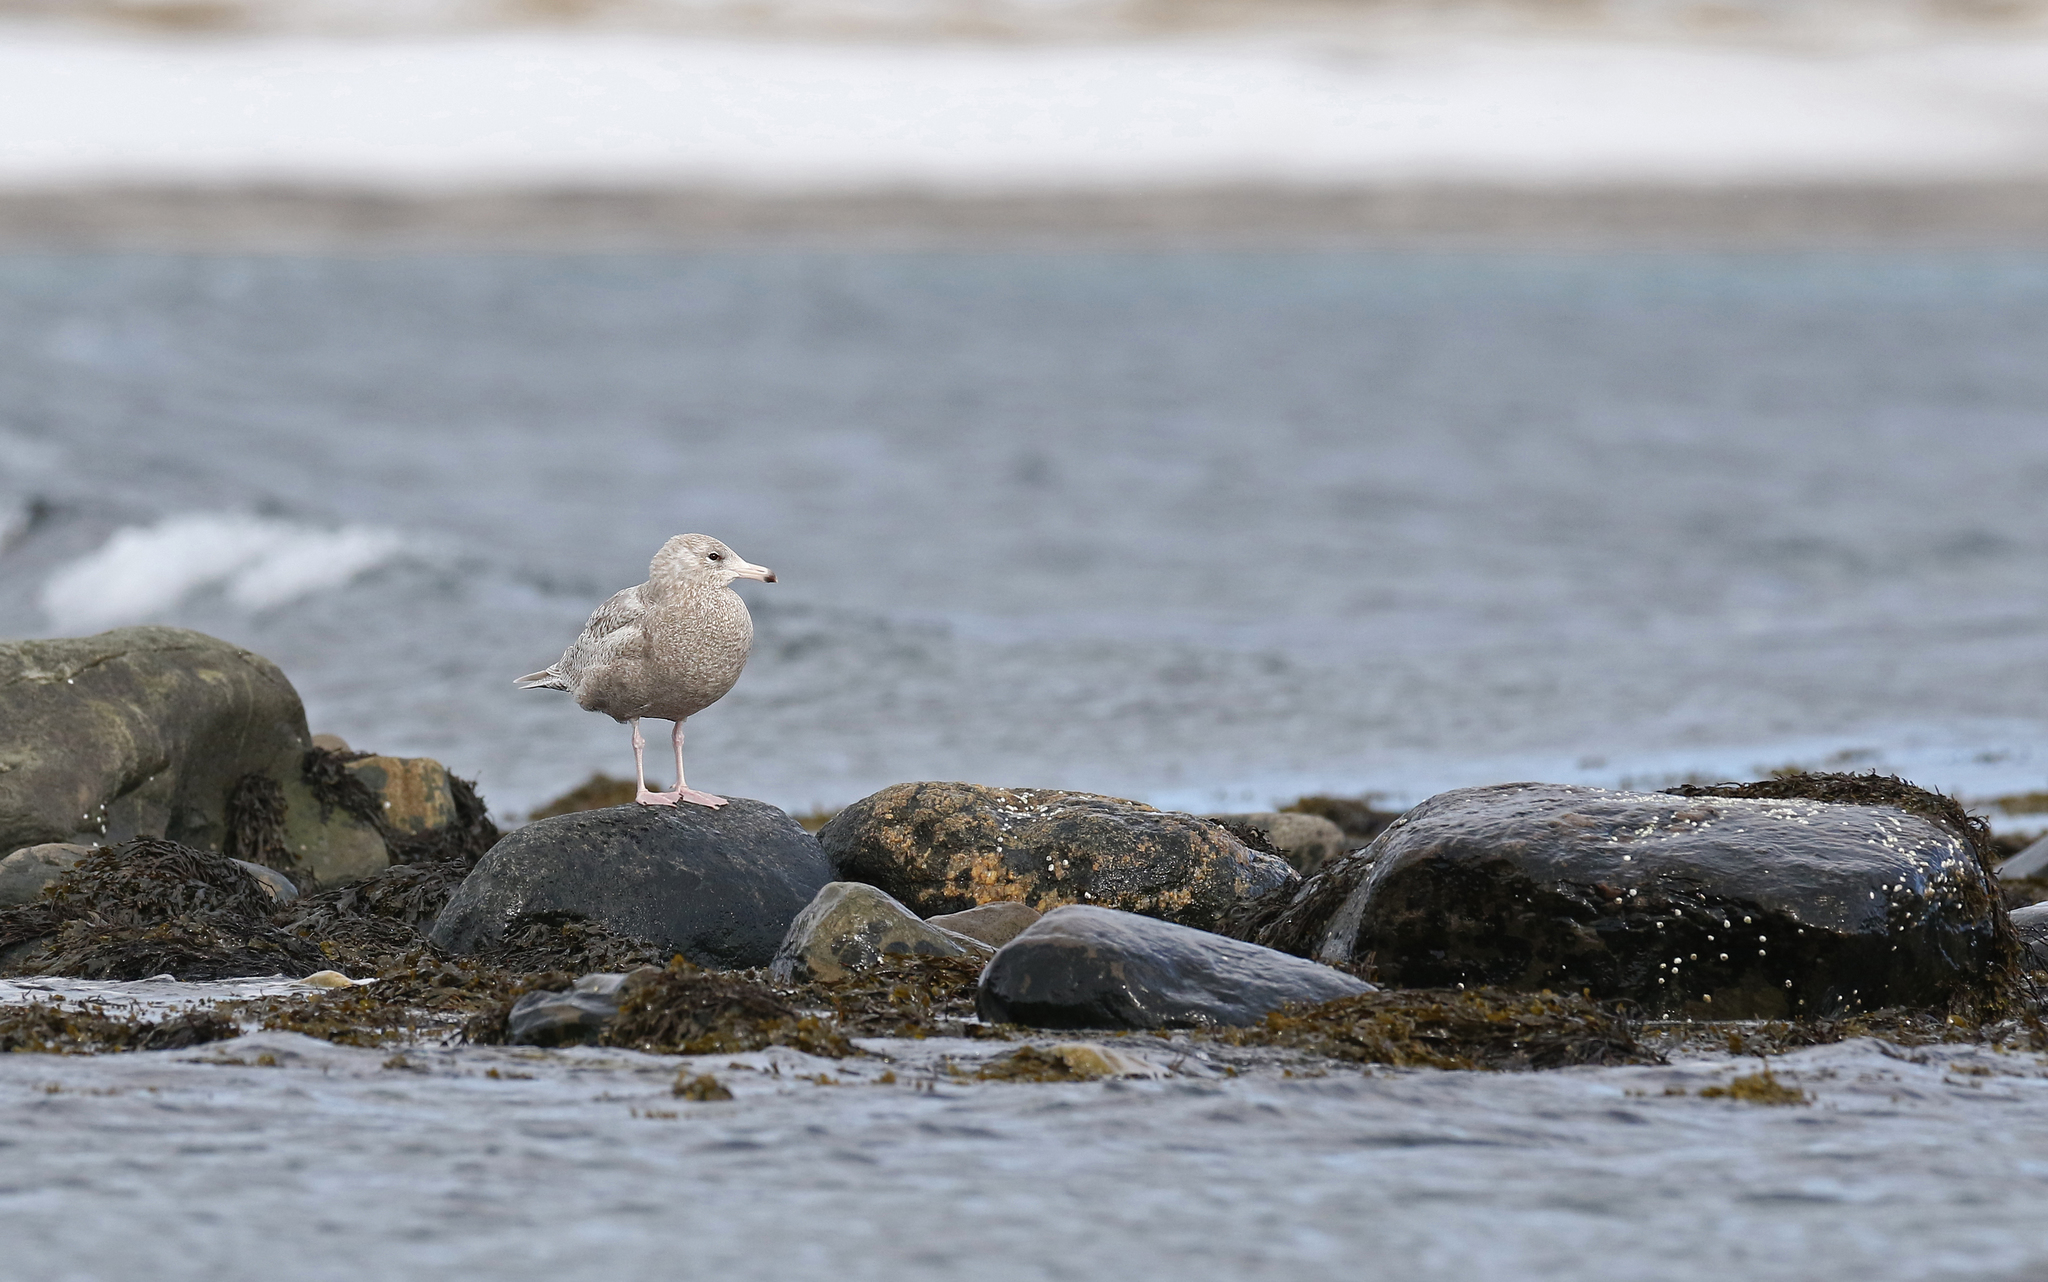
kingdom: Animalia
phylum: Chordata
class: Aves
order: Charadriiformes
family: Laridae
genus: Larus
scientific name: Larus hyperboreus
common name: Glaucous gull
